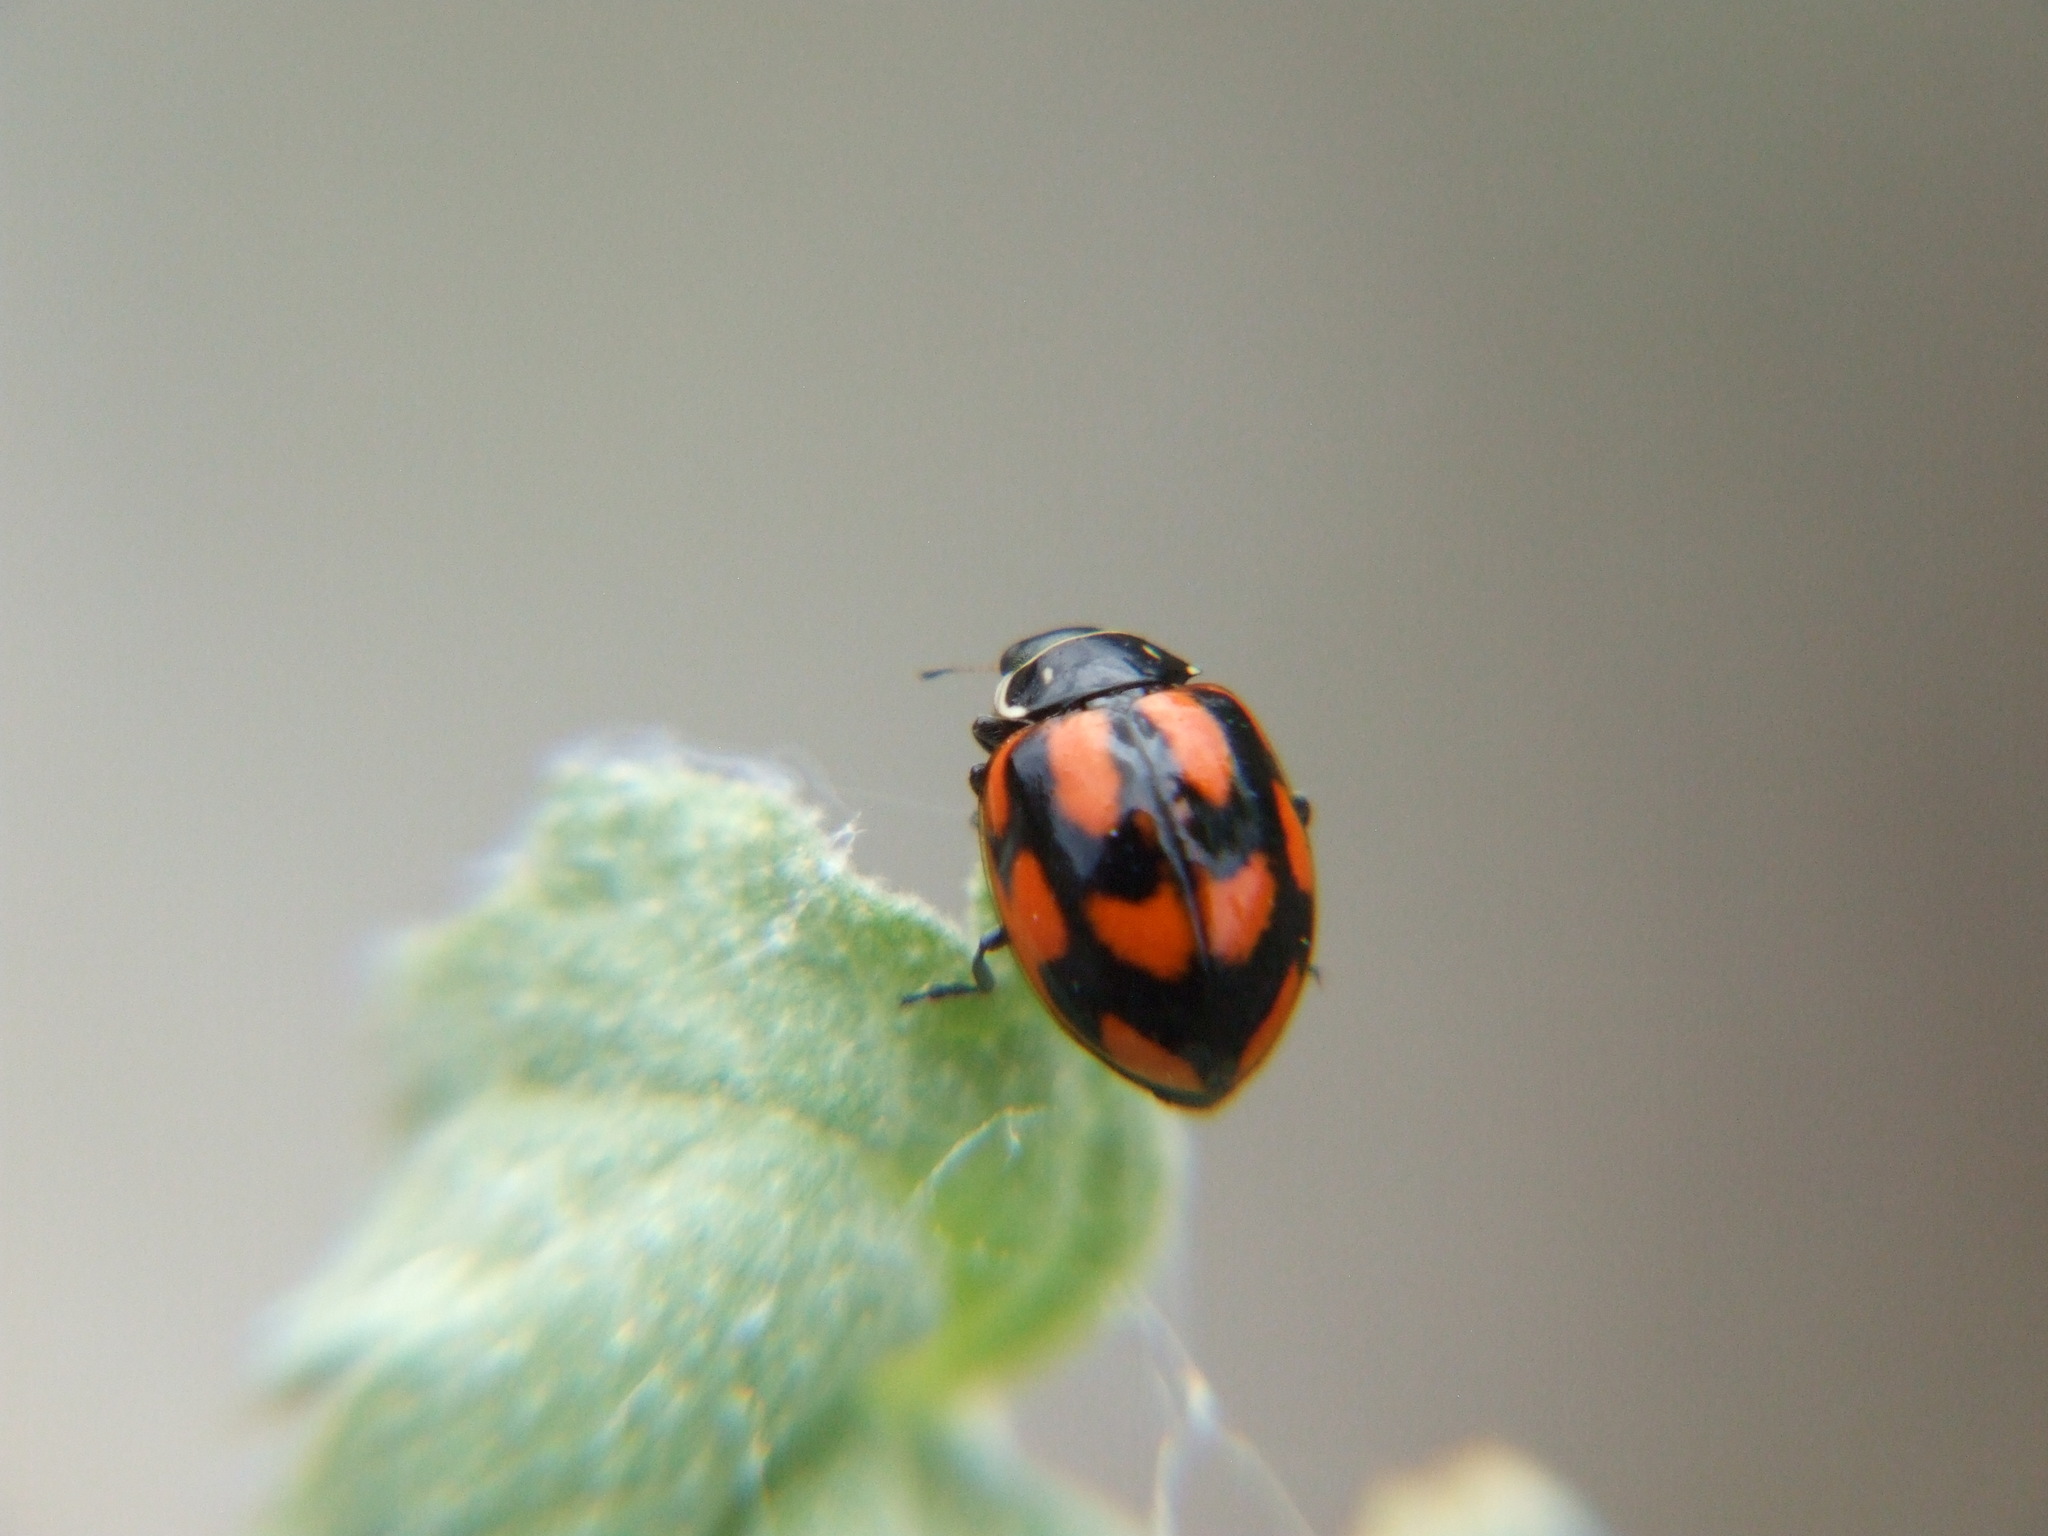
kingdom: Animalia
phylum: Arthropoda
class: Insecta
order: Coleoptera
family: Coccinellidae
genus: Cycloneda
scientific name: Cycloneda
